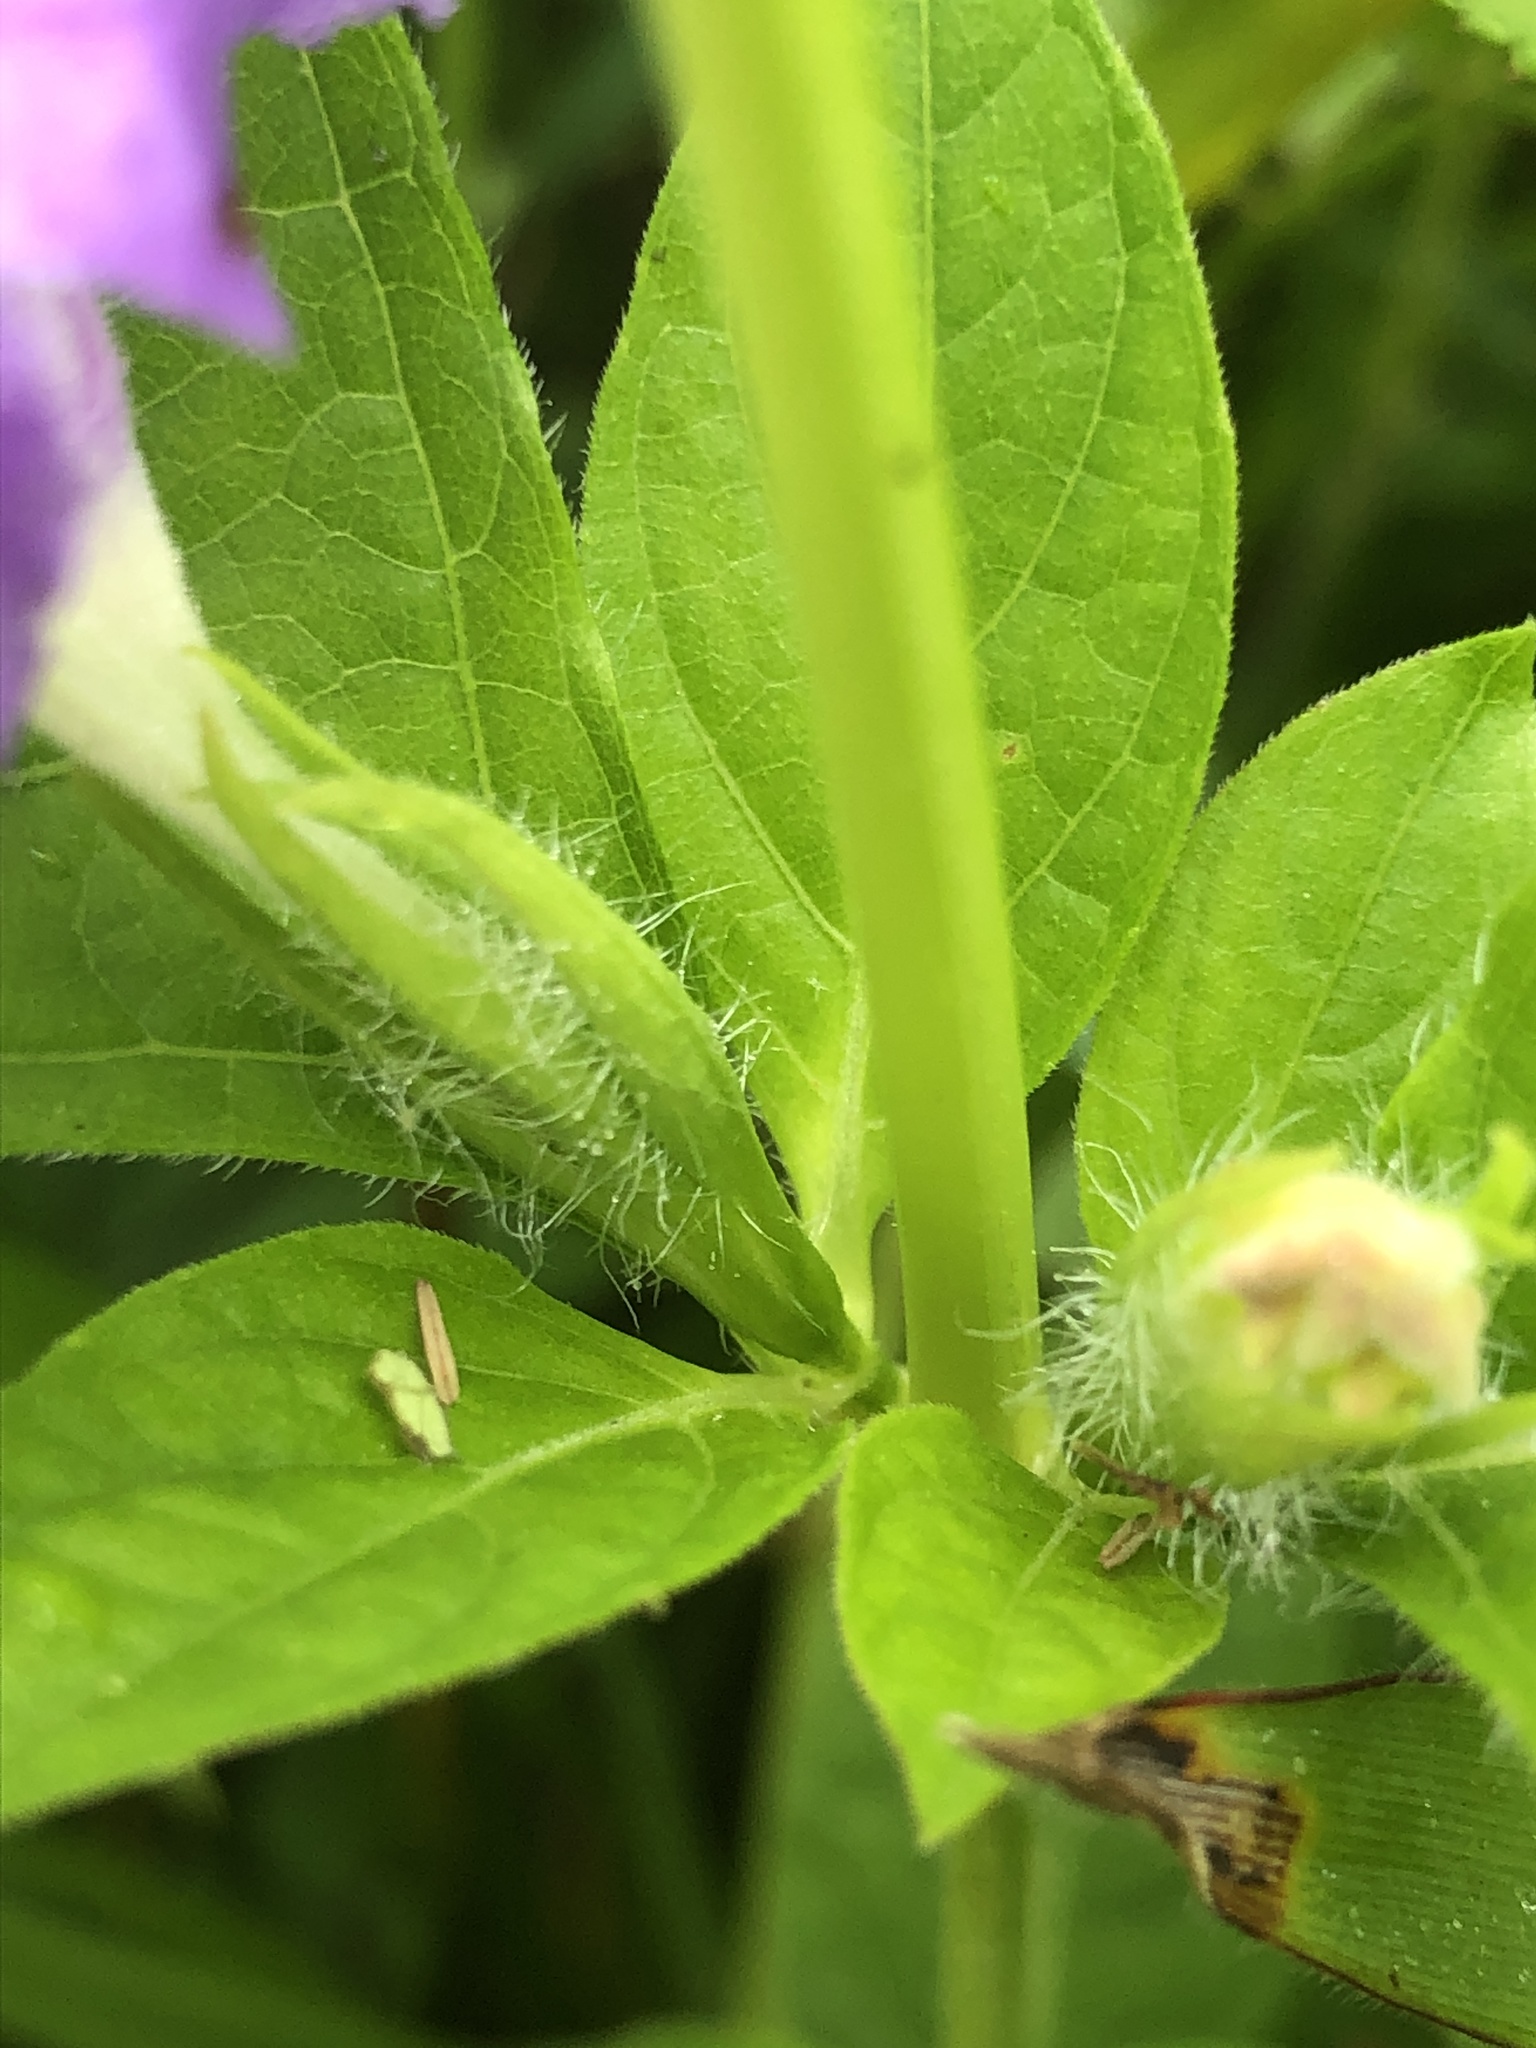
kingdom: Plantae
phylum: Tracheophyta
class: Magnoliopsida
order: Lamiales
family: Acanthaceae
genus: Ruellia
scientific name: Ruellia strepens
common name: Limestone wild petunia
